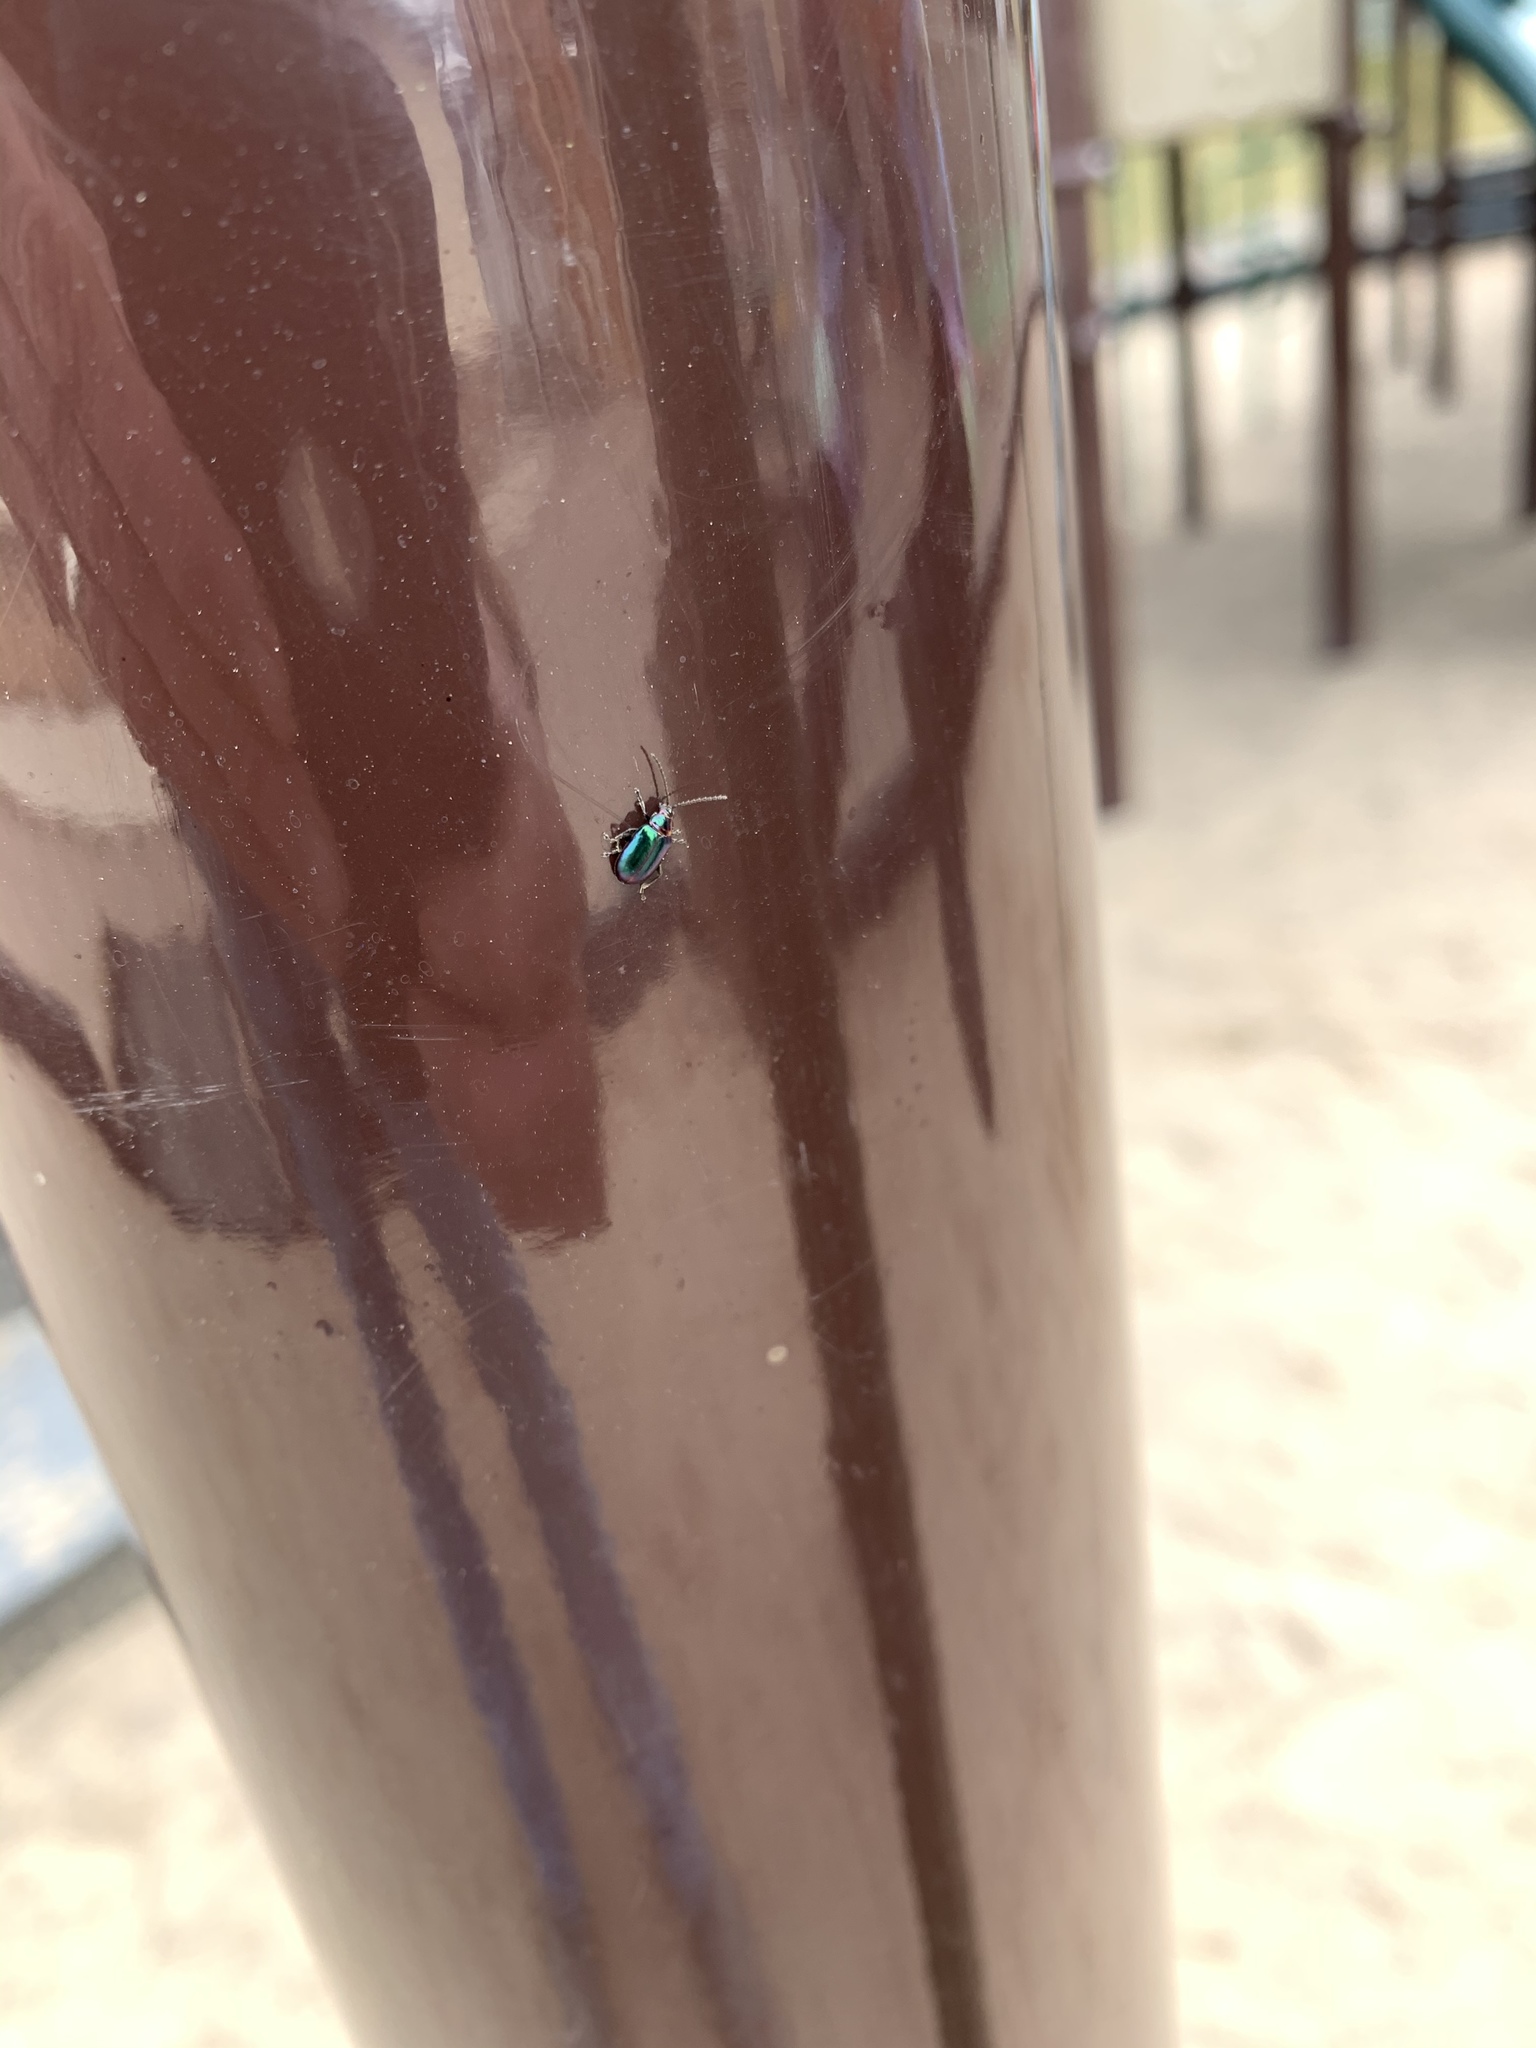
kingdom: Animalia
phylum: Arthropoda
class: Insecta
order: Coleoptera
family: Chrysomelidae
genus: Altica
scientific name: Altica torquata
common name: Leaf beetle
